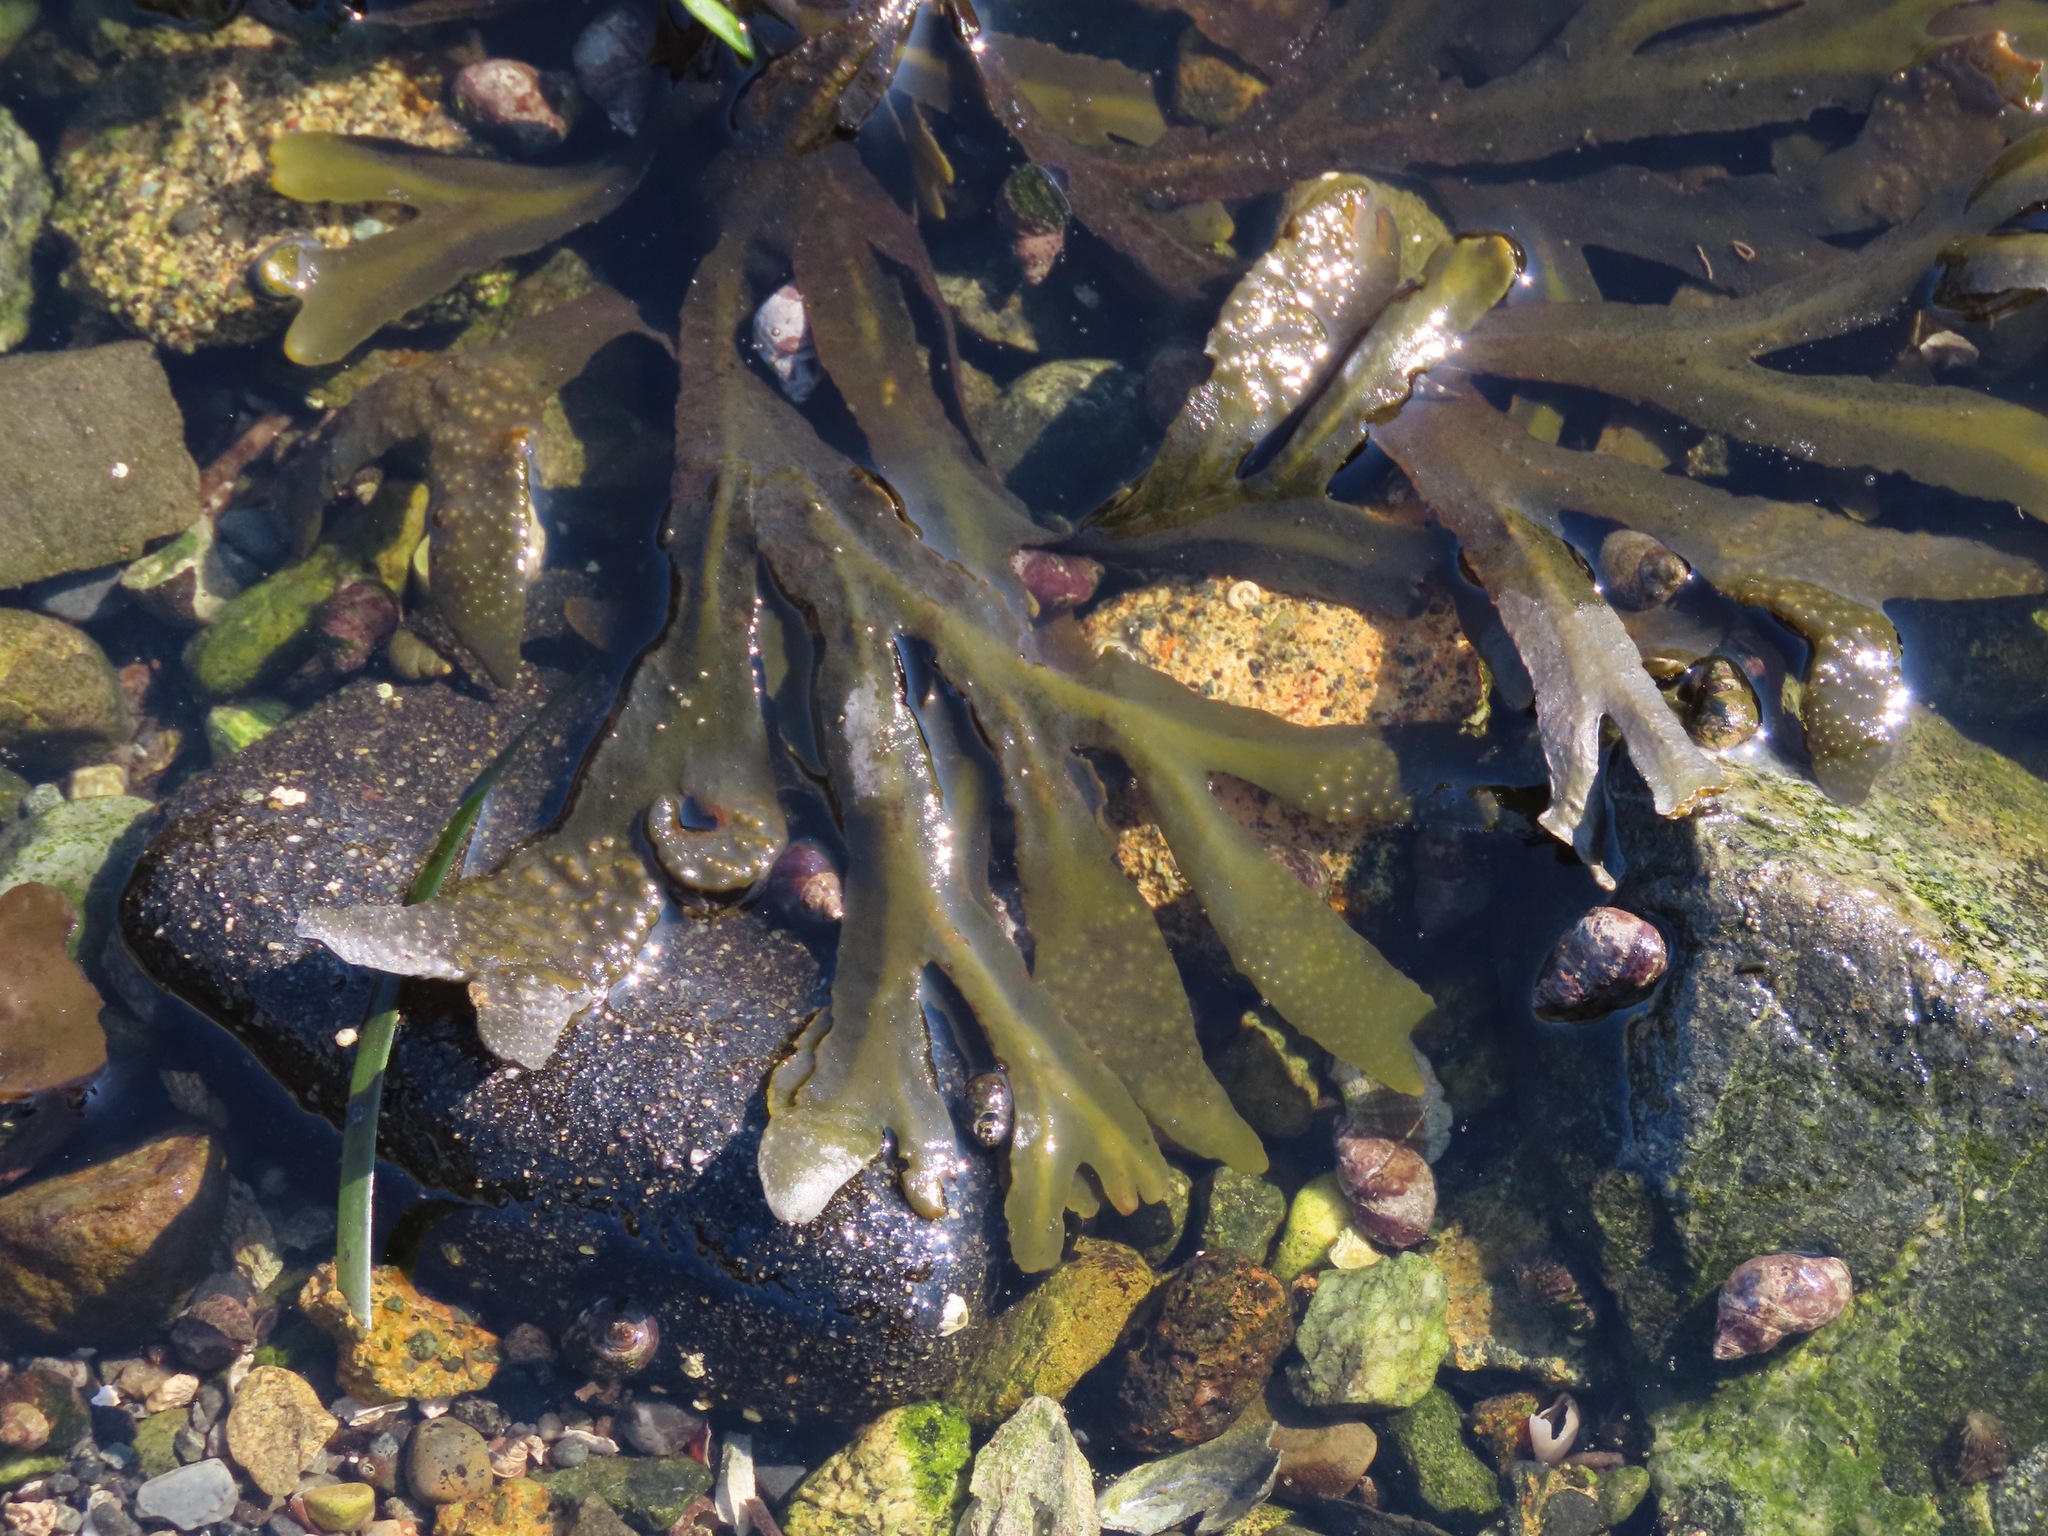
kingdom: Chromista
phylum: Ochrophyta
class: Phaeophyceae
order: Fucales
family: Fucaceae
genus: Fucus
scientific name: Fucus distichus
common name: Rockweed
